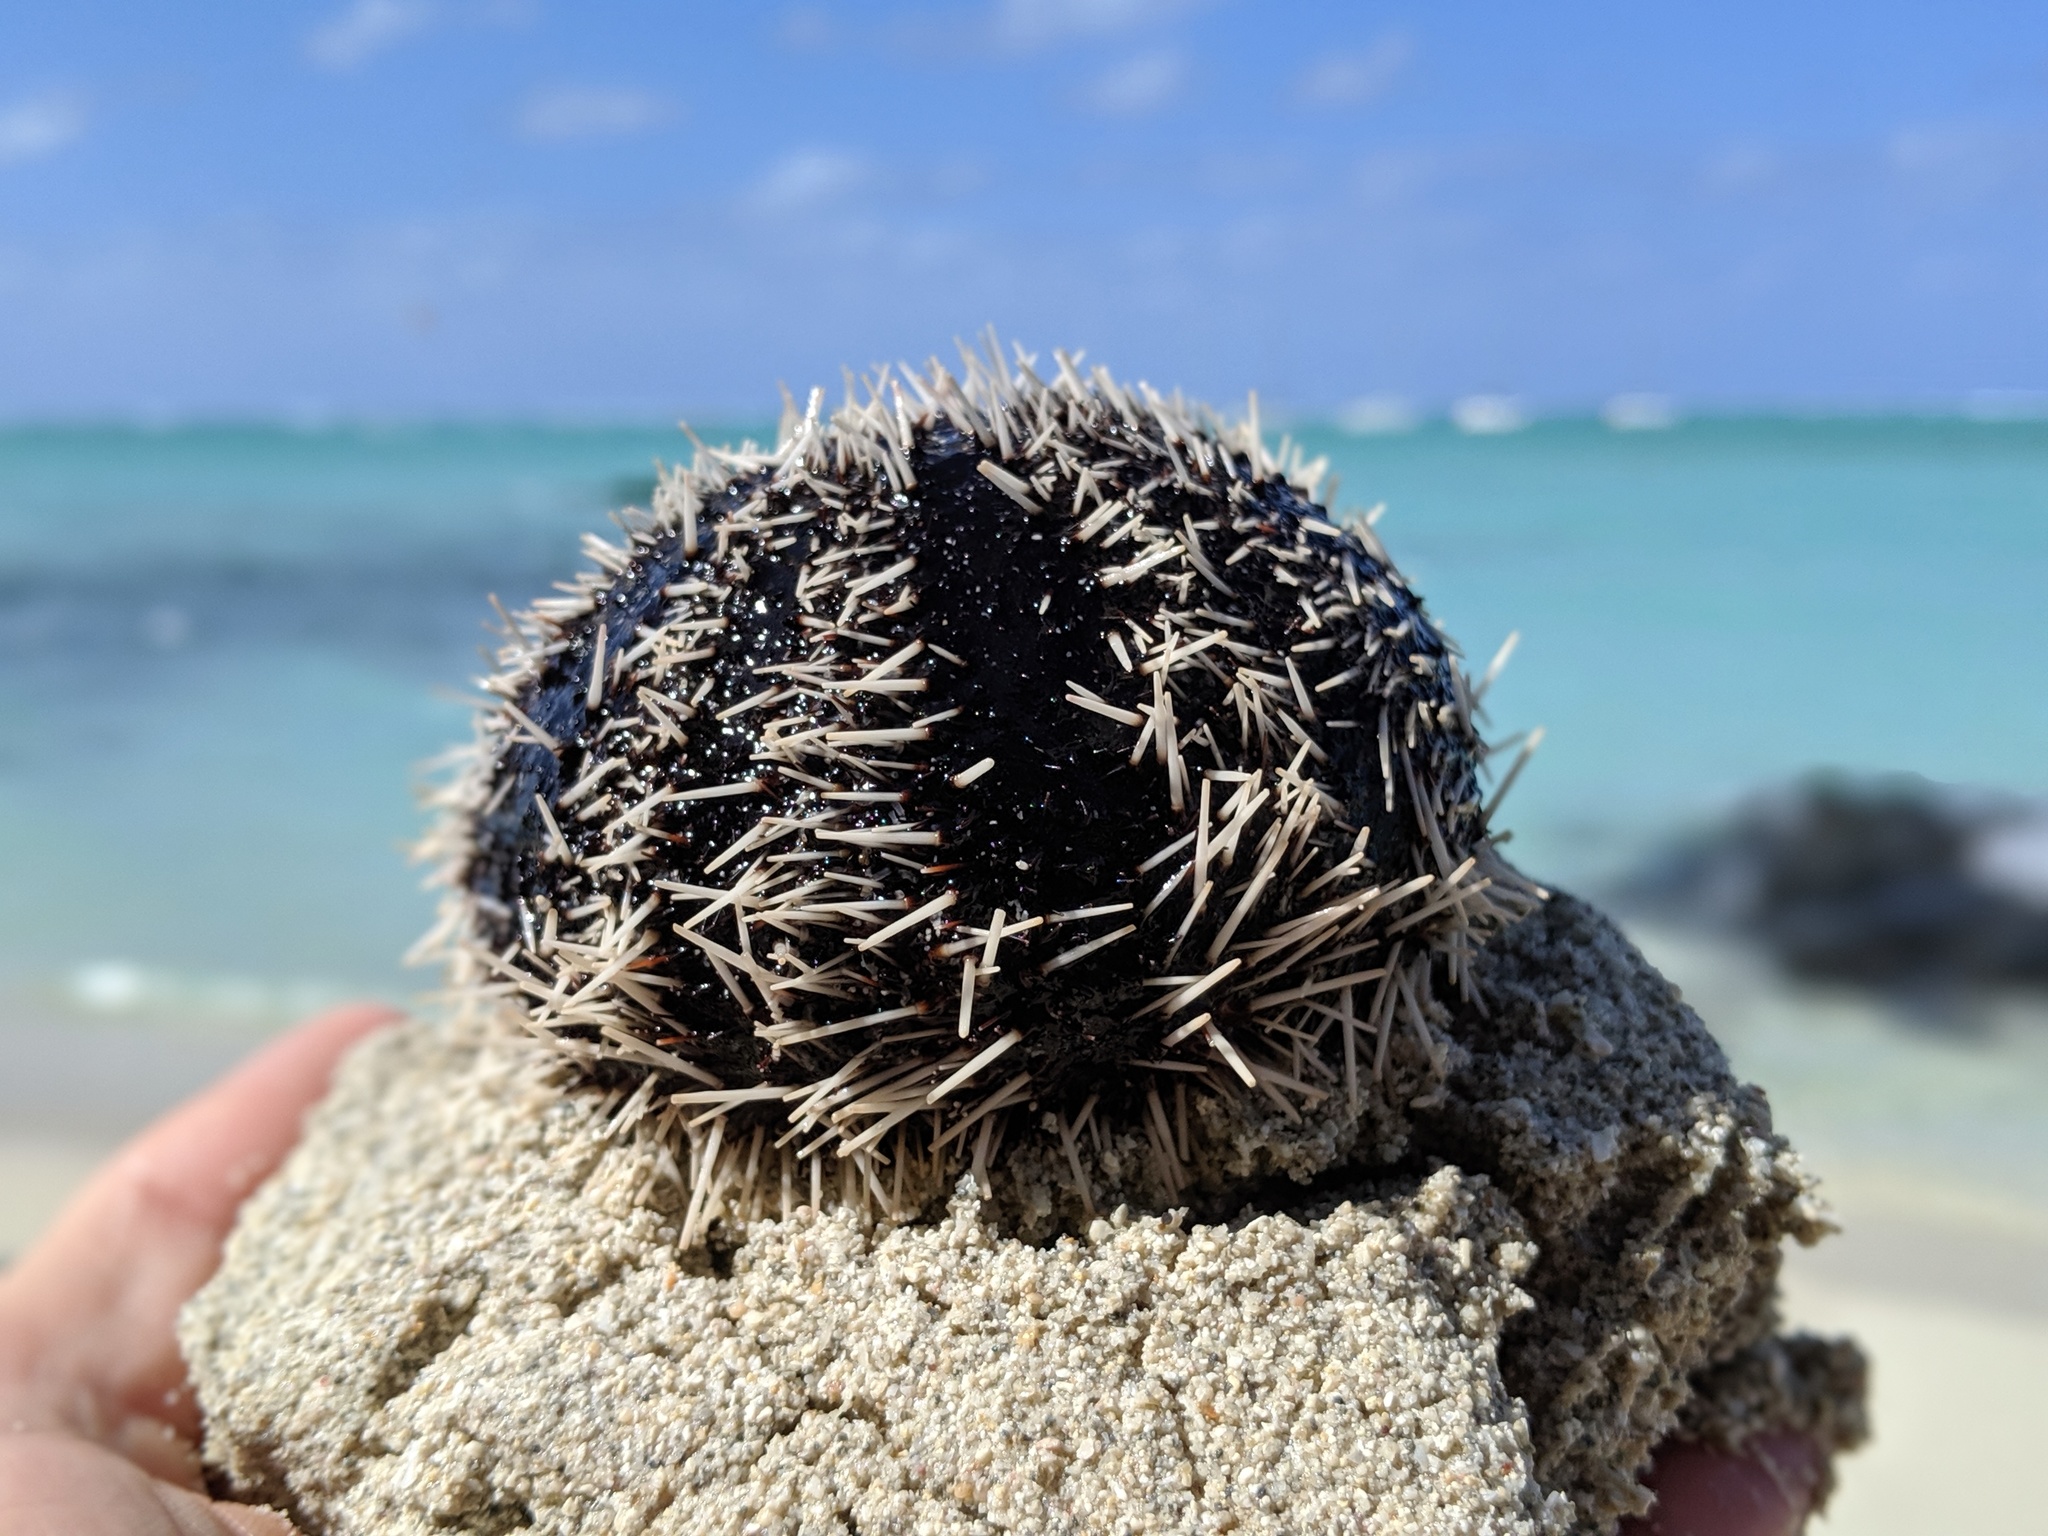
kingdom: Animalia
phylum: Echinodermata
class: Echinoidea
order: Camarodonta
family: Toxopneustidae
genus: Tripneustes
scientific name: Tripneustes gratilla
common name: Bischofsmützenseeigel
